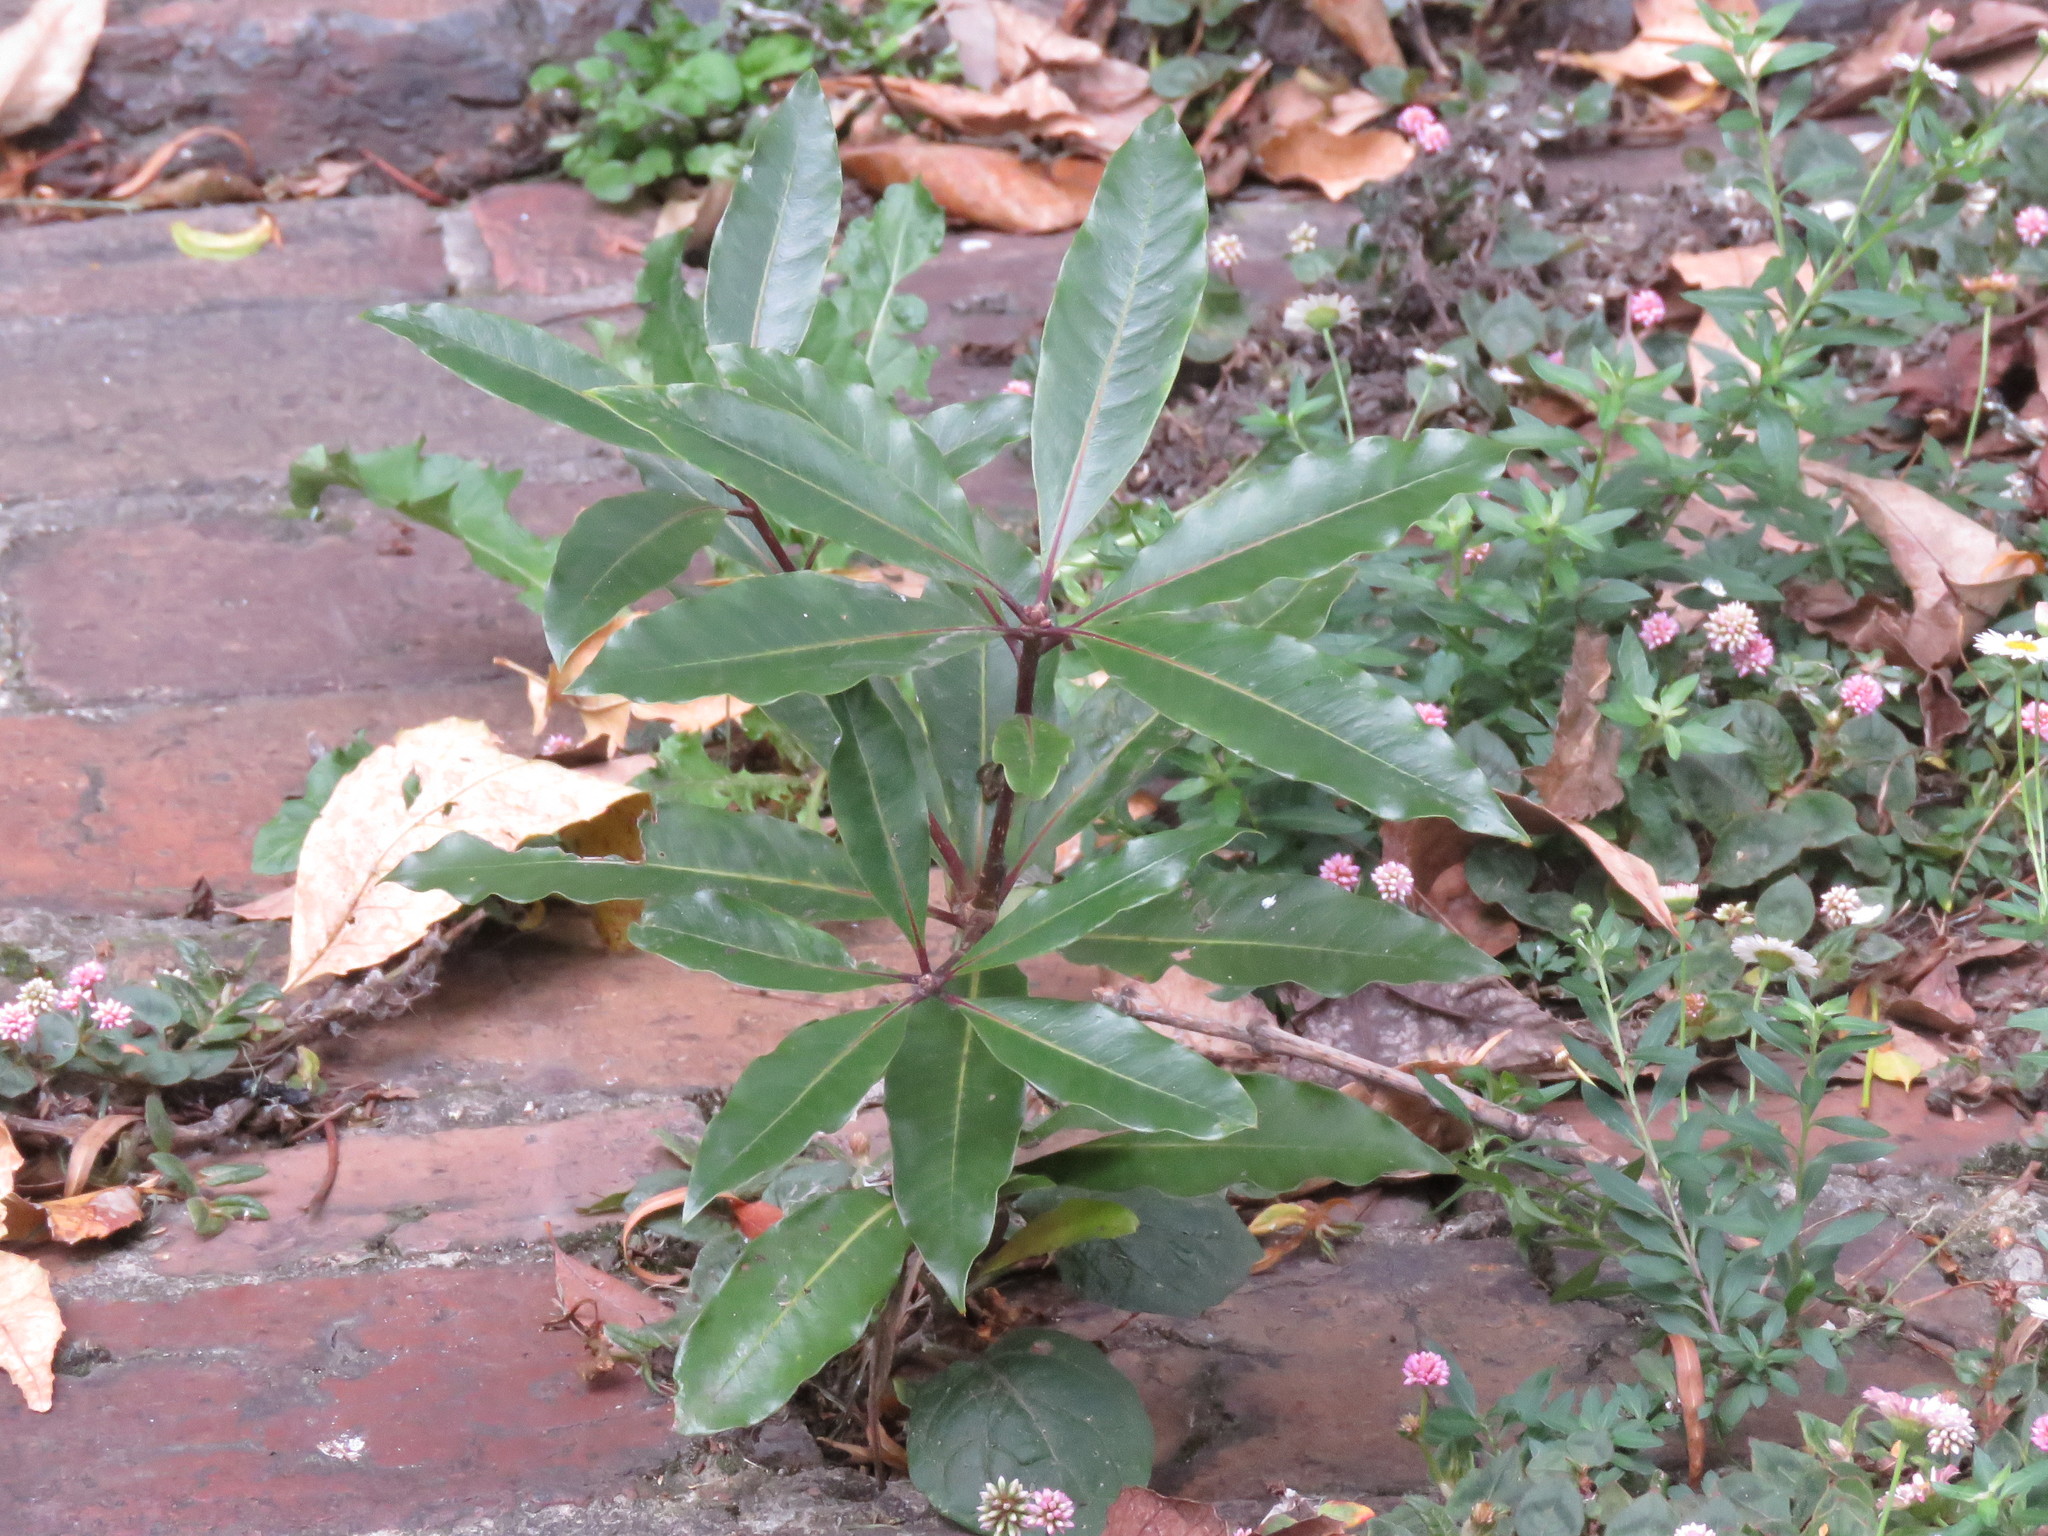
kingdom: Plantae
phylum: Tracheophyta
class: Magnoliopsida
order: Apiales
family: Pittosporaceae
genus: Pittosporum
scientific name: Pittosporum undulatum
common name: Australian cheesewood
